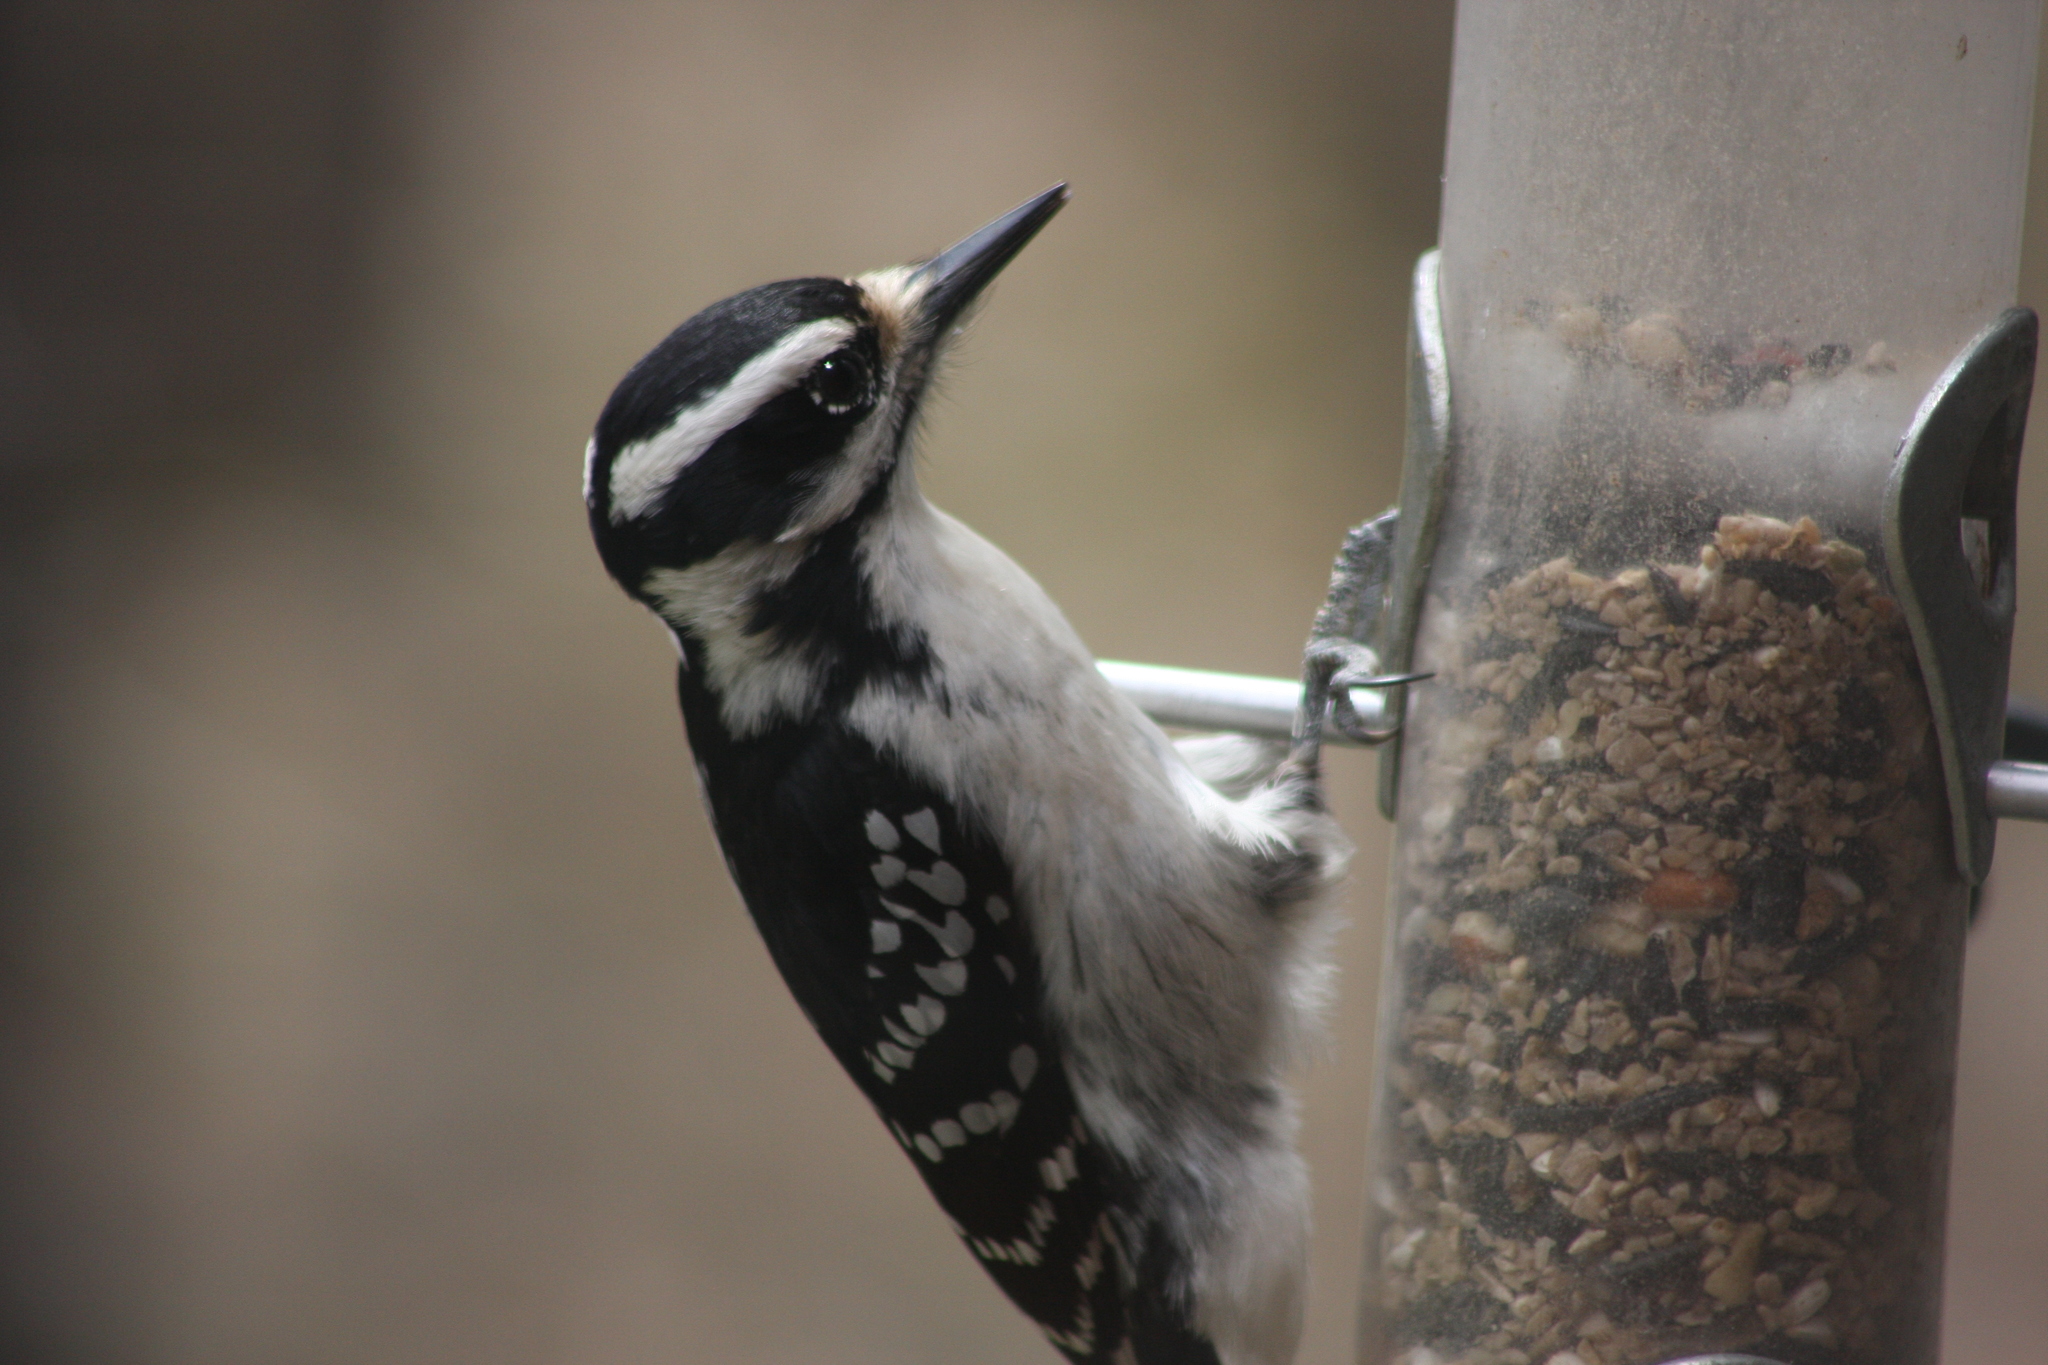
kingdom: Animalia
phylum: Chordata
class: Aves
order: Piciformes
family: Picidae
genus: Leuconotopicus
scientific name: Leuconotopicus villosus
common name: Hairy woodpecker
